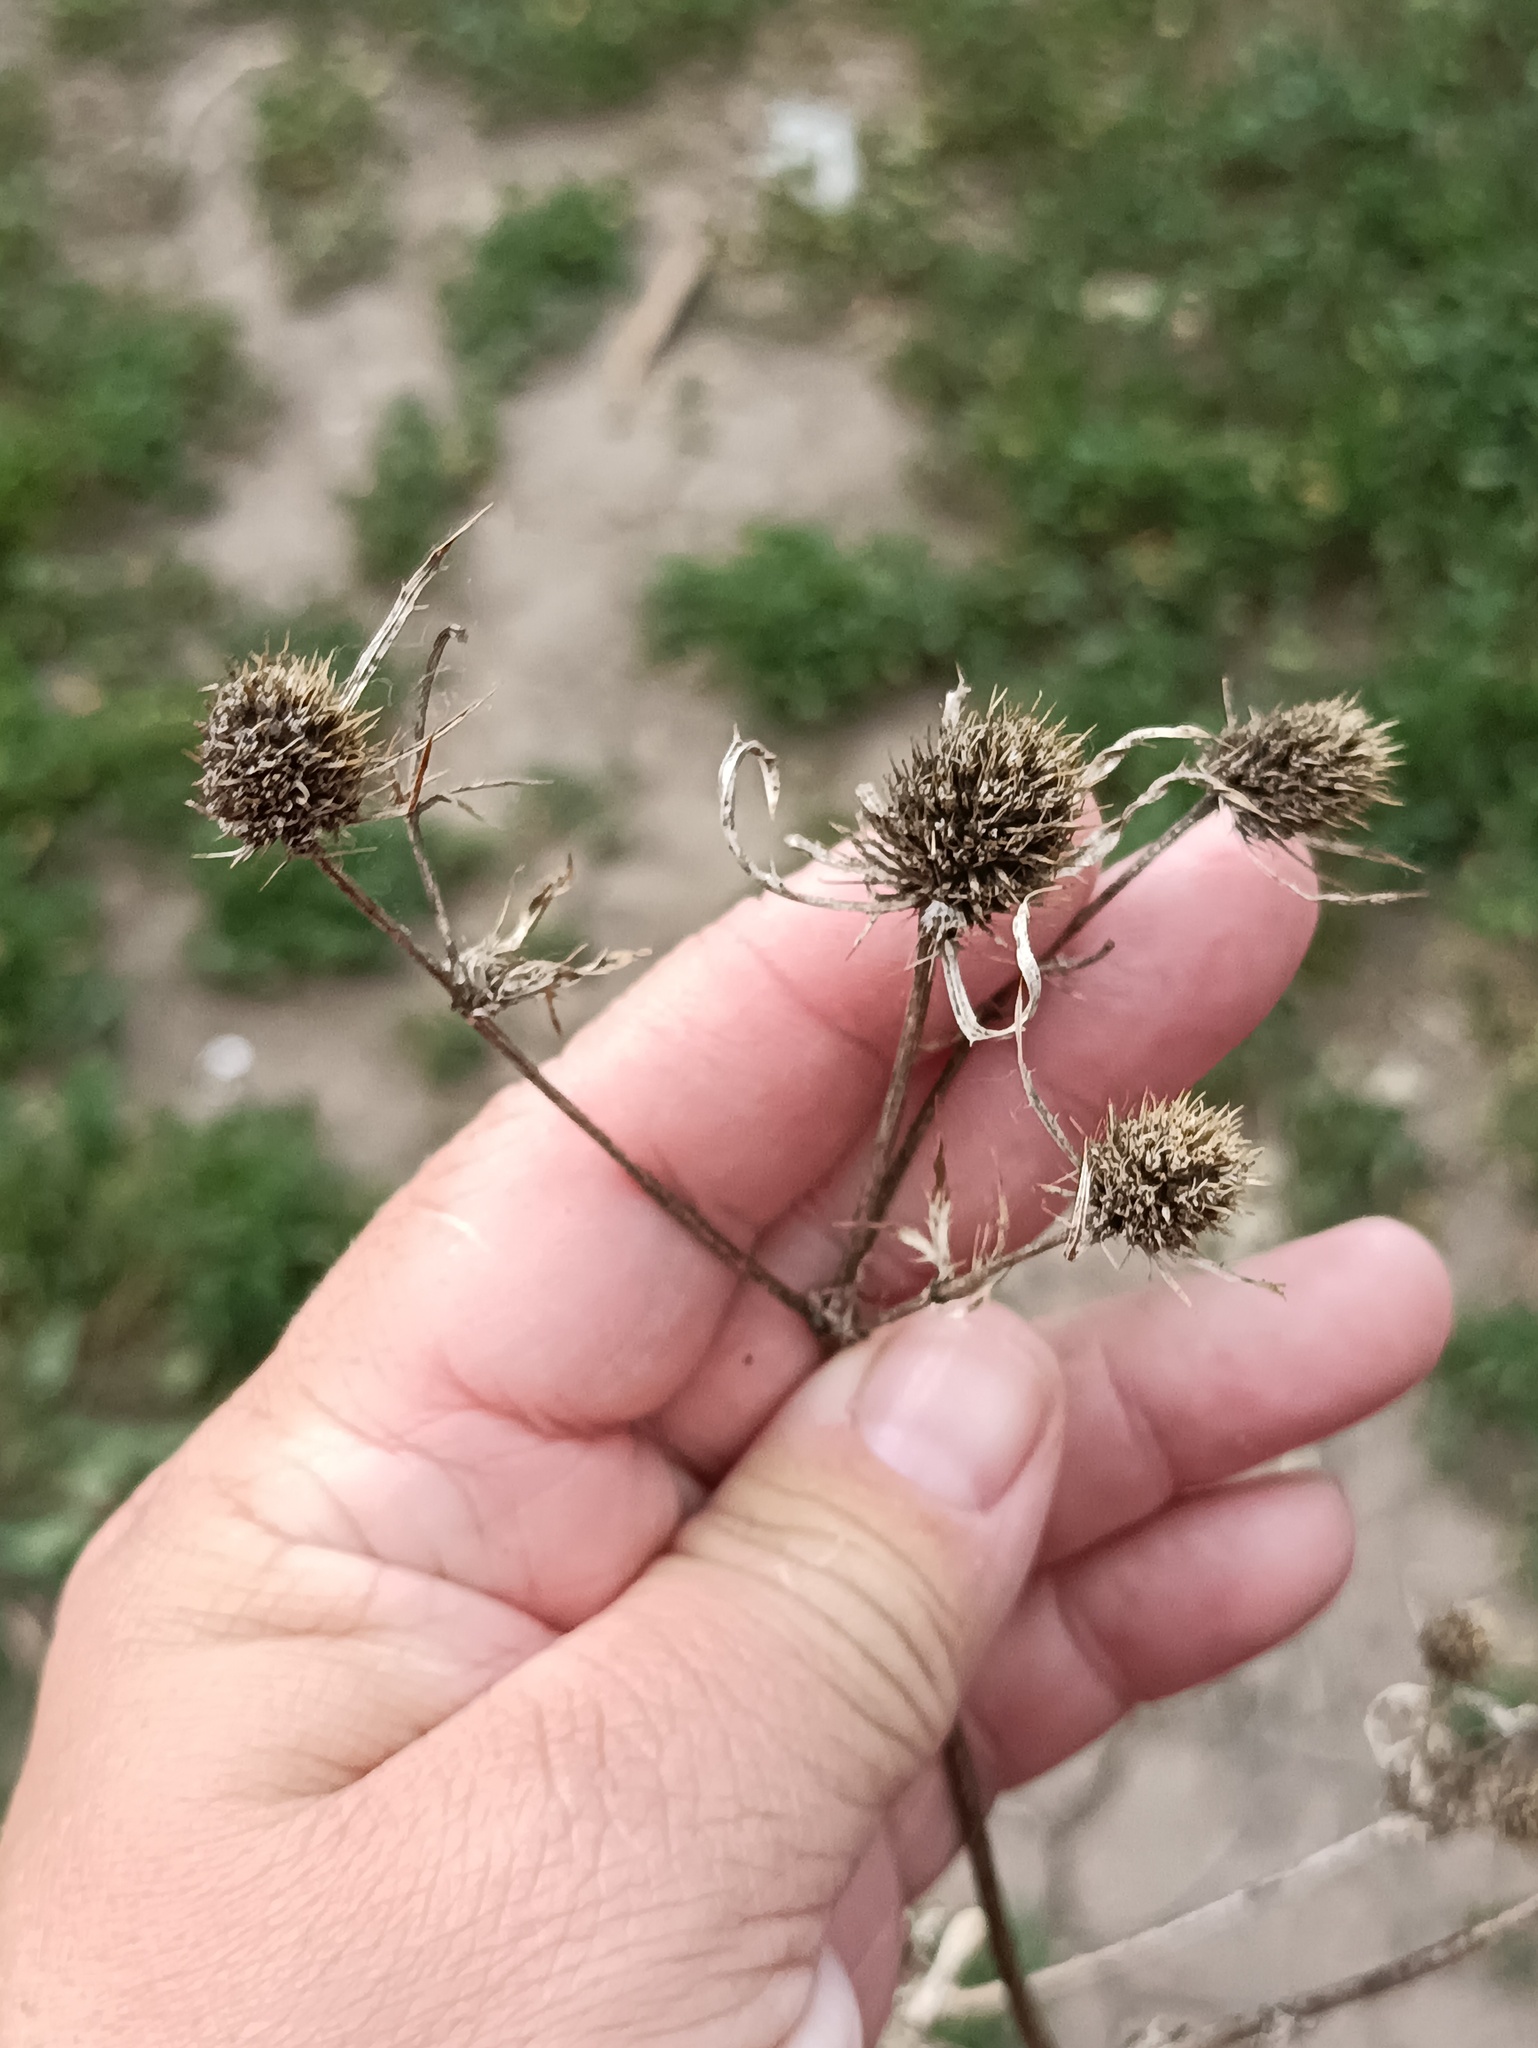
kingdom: Plantae
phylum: Tracheophyta
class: Magnoliopsida
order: Apiales
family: Apiaceae
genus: Eryngium
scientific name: Eryngium planum
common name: Blue eryngo
